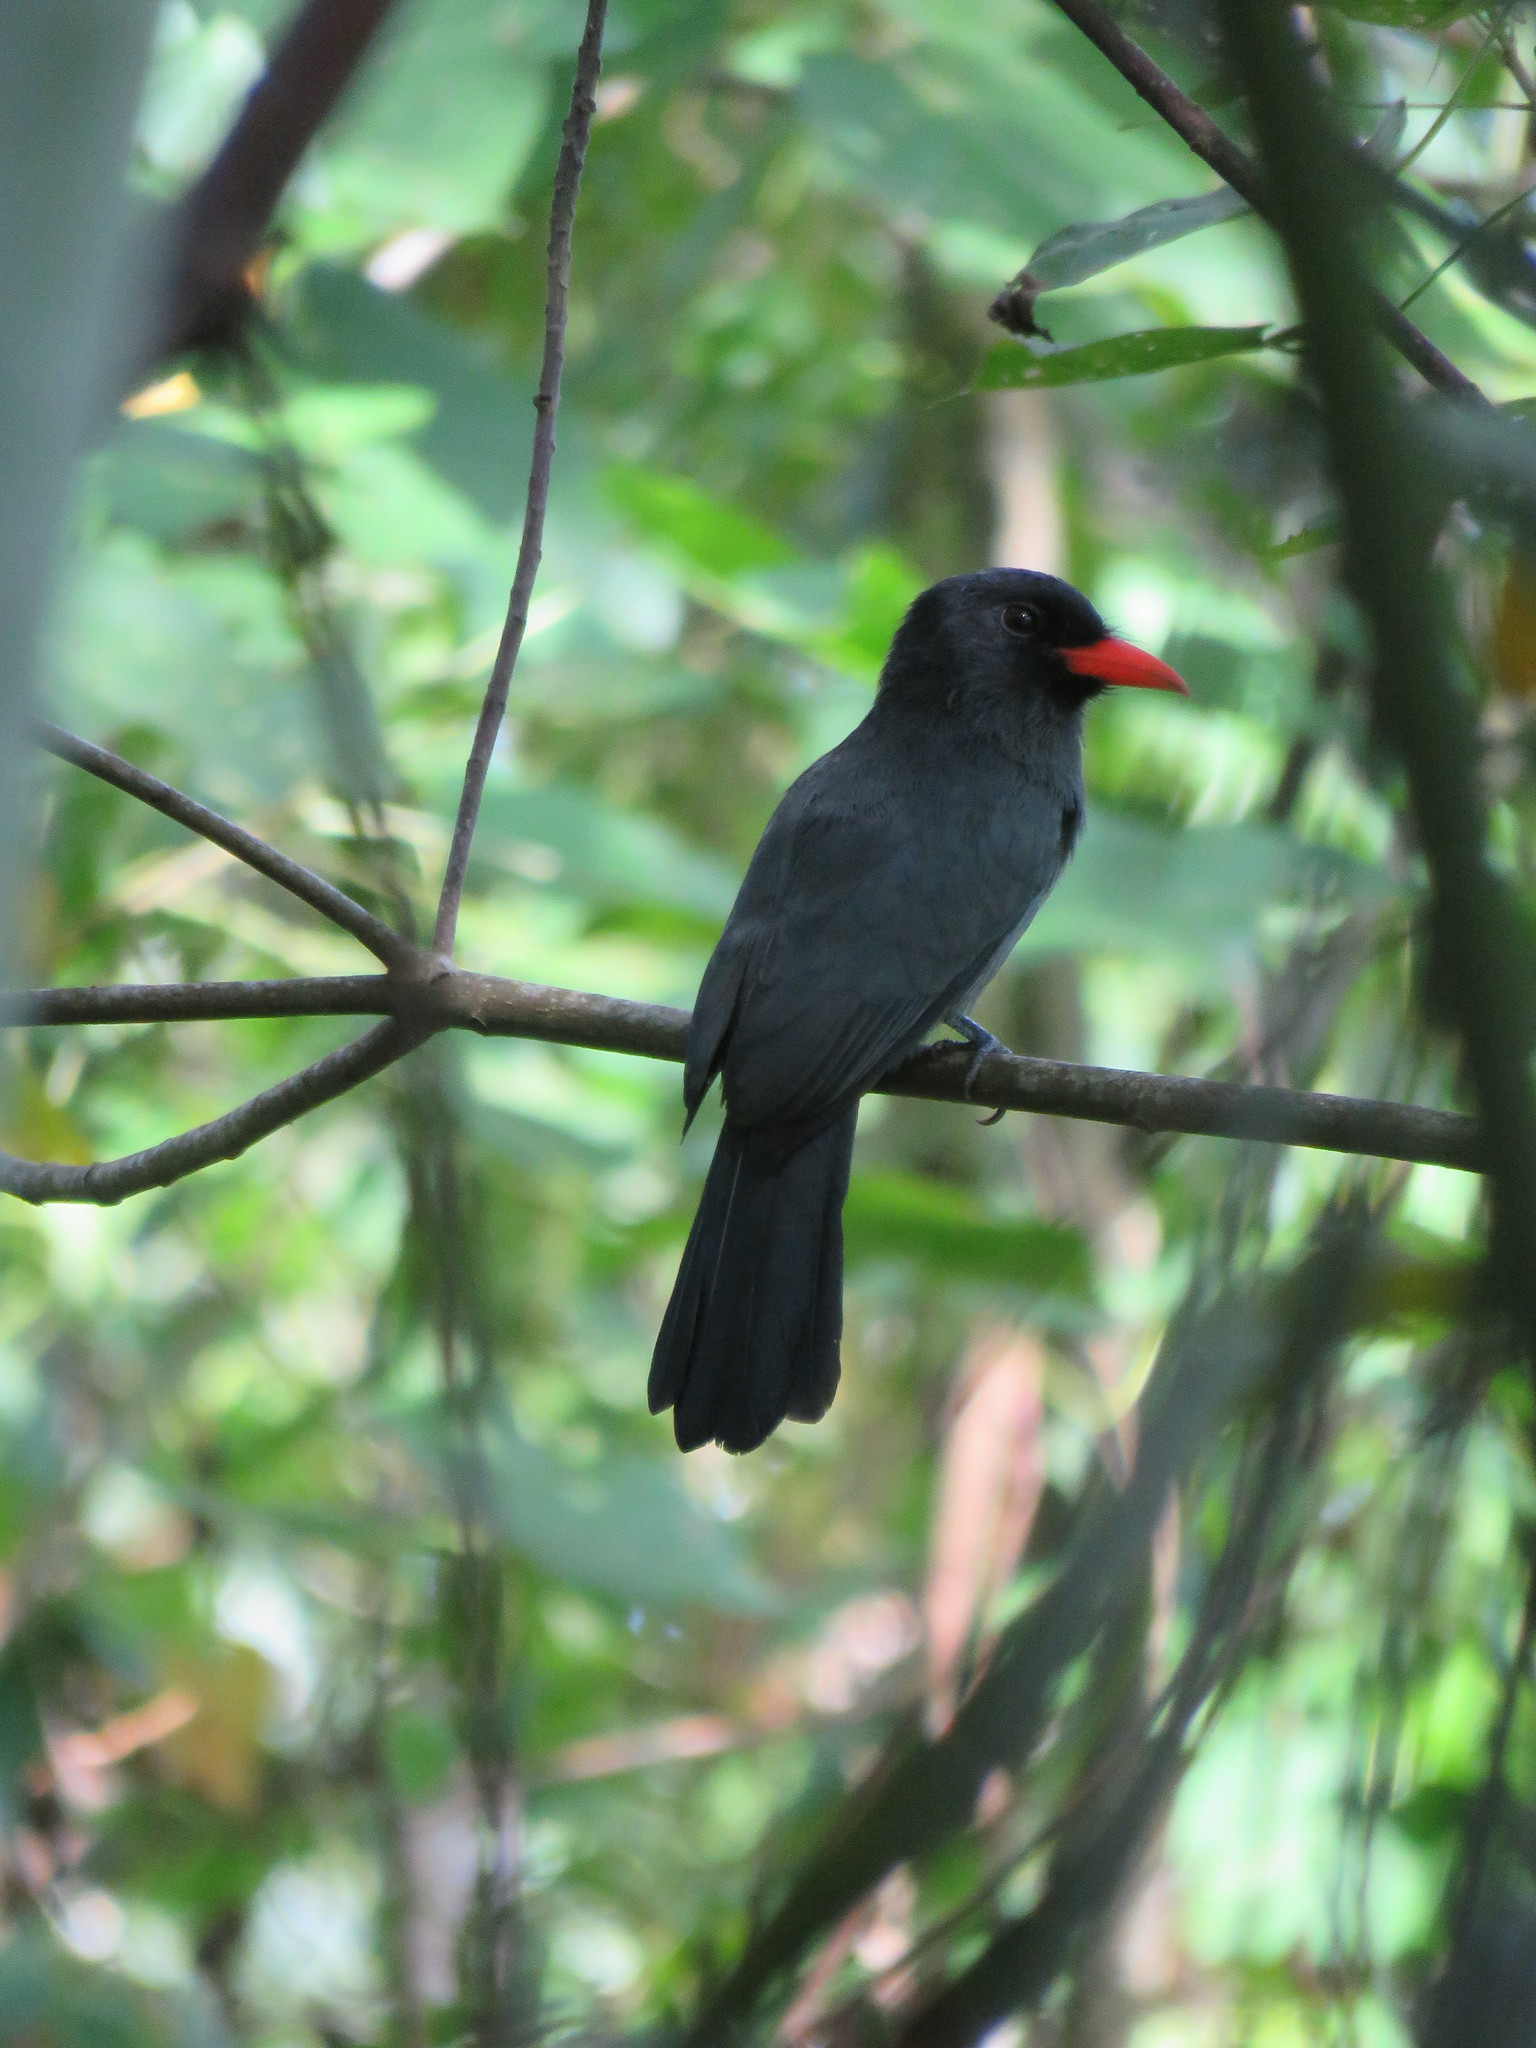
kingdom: Animalia
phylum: Chordata
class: Aves
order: Piciformes
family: Bucconidae
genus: Monasa
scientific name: Monasa nigrifrons
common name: Black-fronted nunbird
